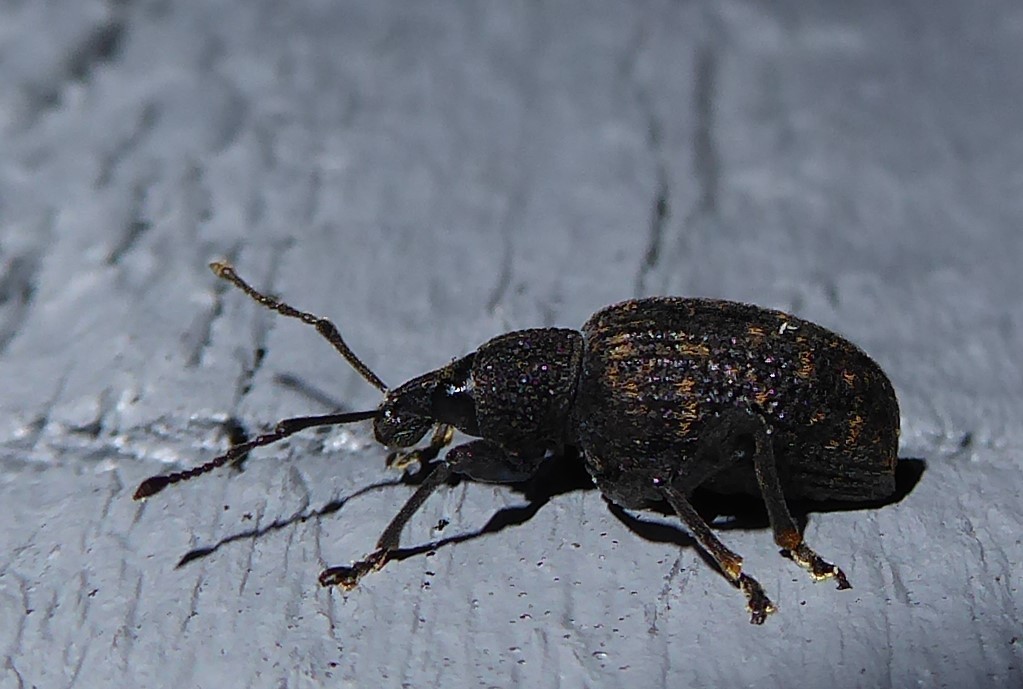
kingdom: Animalia
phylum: Arthropoda
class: Insecta
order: Coleoptera
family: Curculionidae
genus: Otiorhynchus
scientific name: Otiorhynchus sulcatus
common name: Black vine weevil
